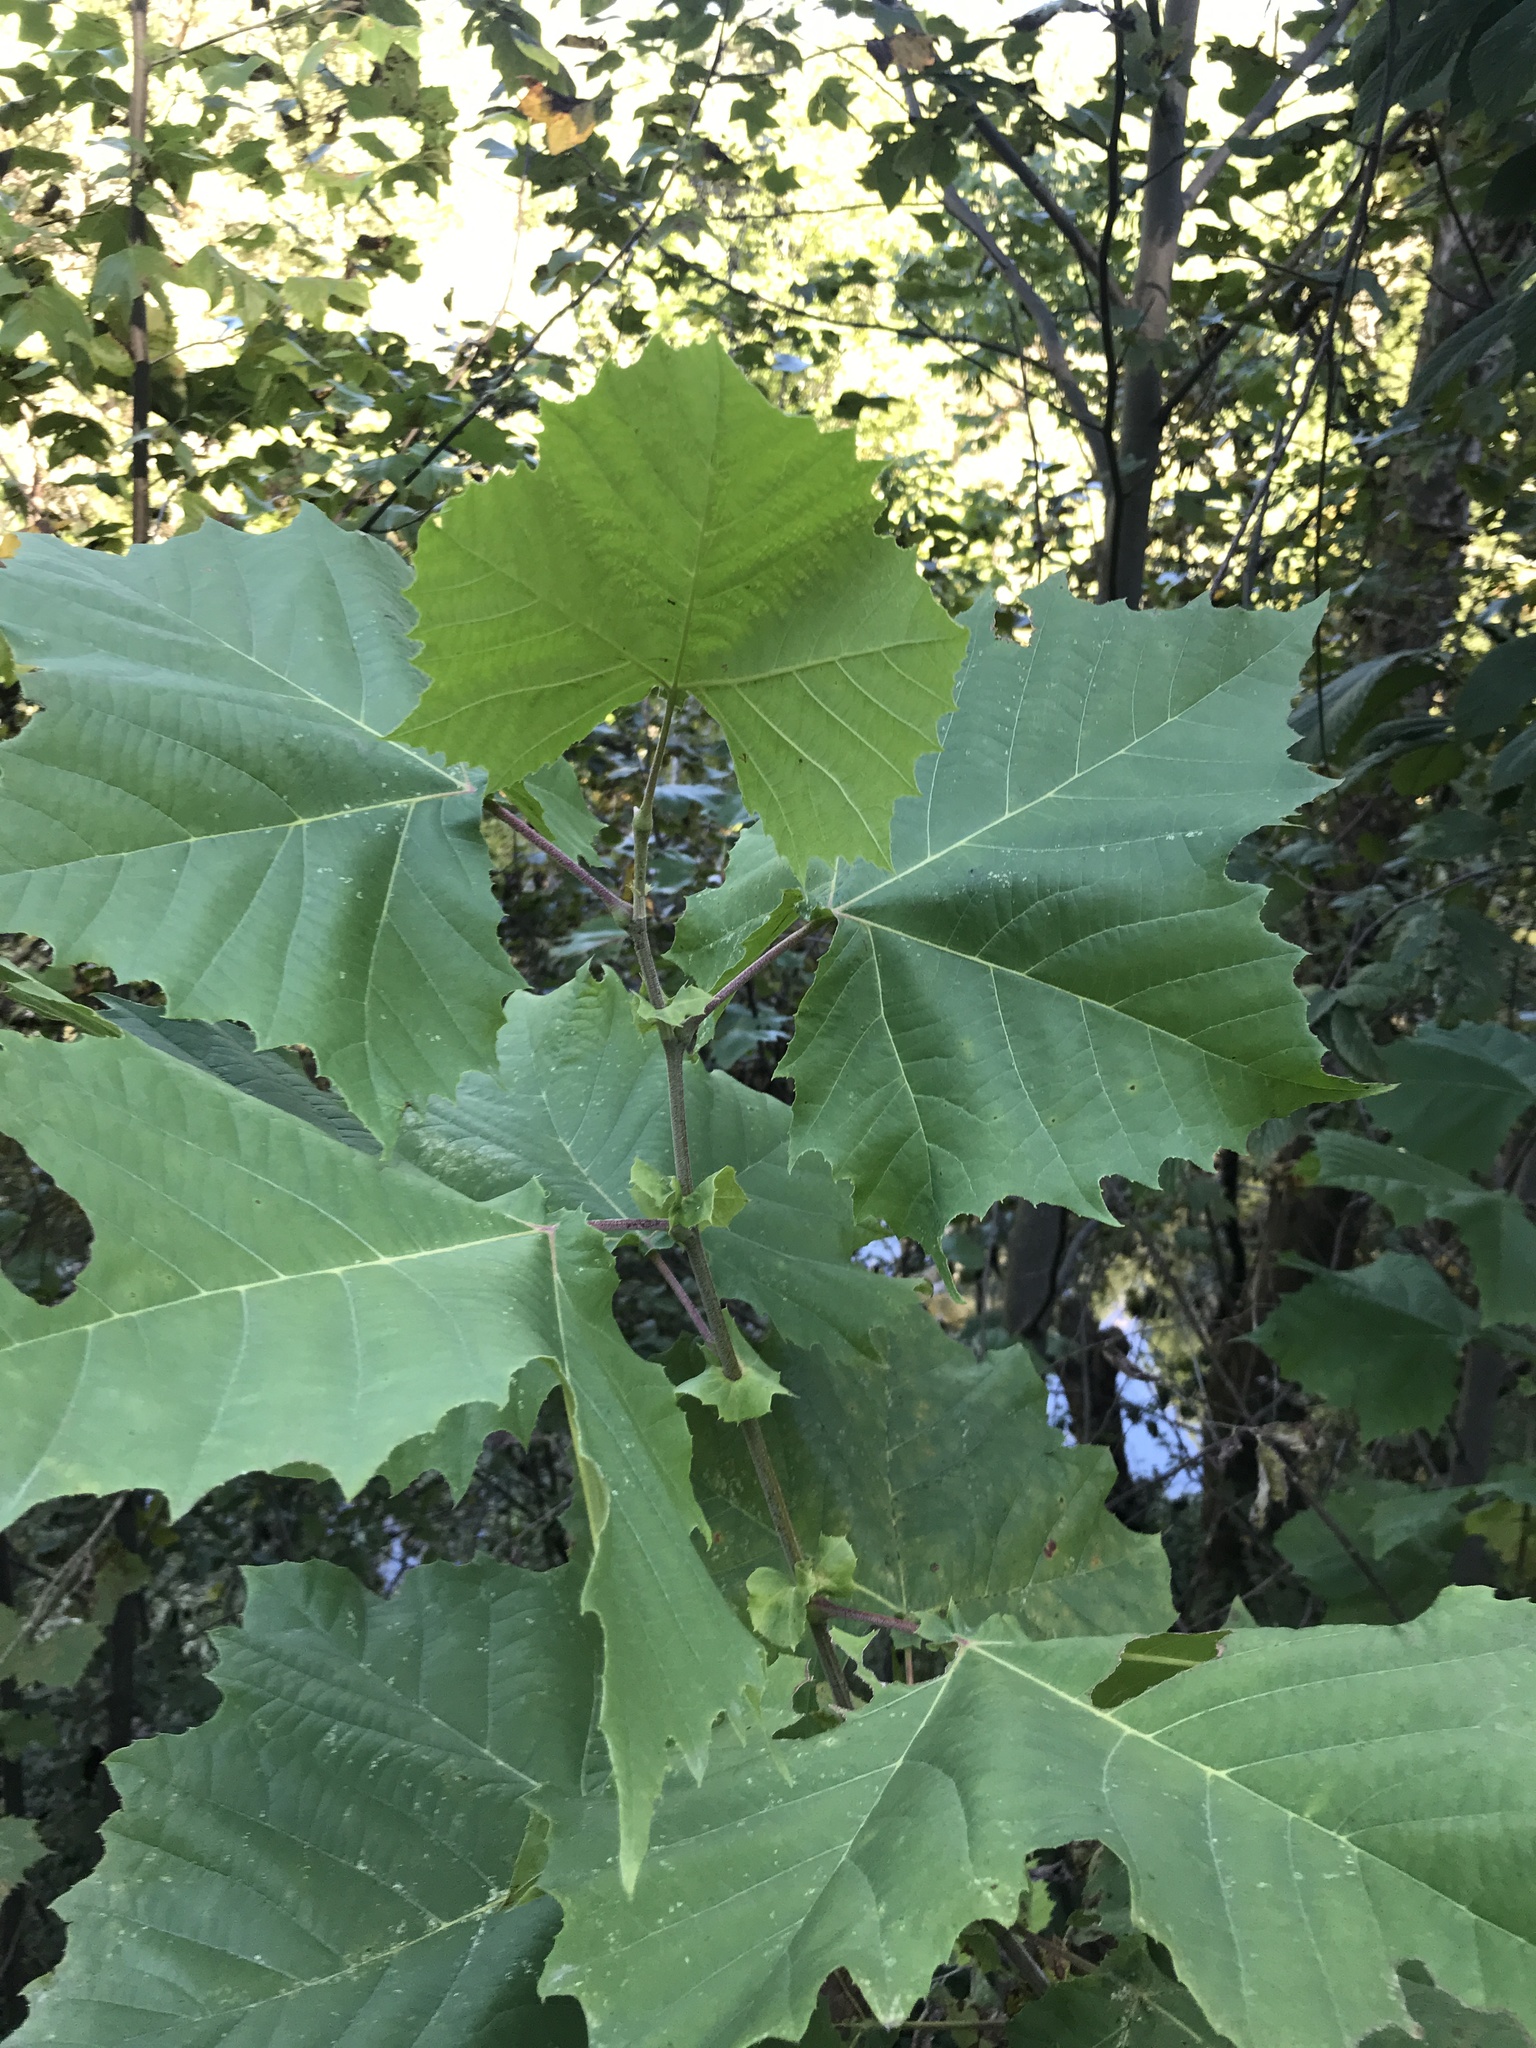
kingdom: Plantae
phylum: Tracheophyta
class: Magnoliopsida
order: Proteales
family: Platanaceae
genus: Platanus
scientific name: Platanus occidentalis
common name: American sycamore
